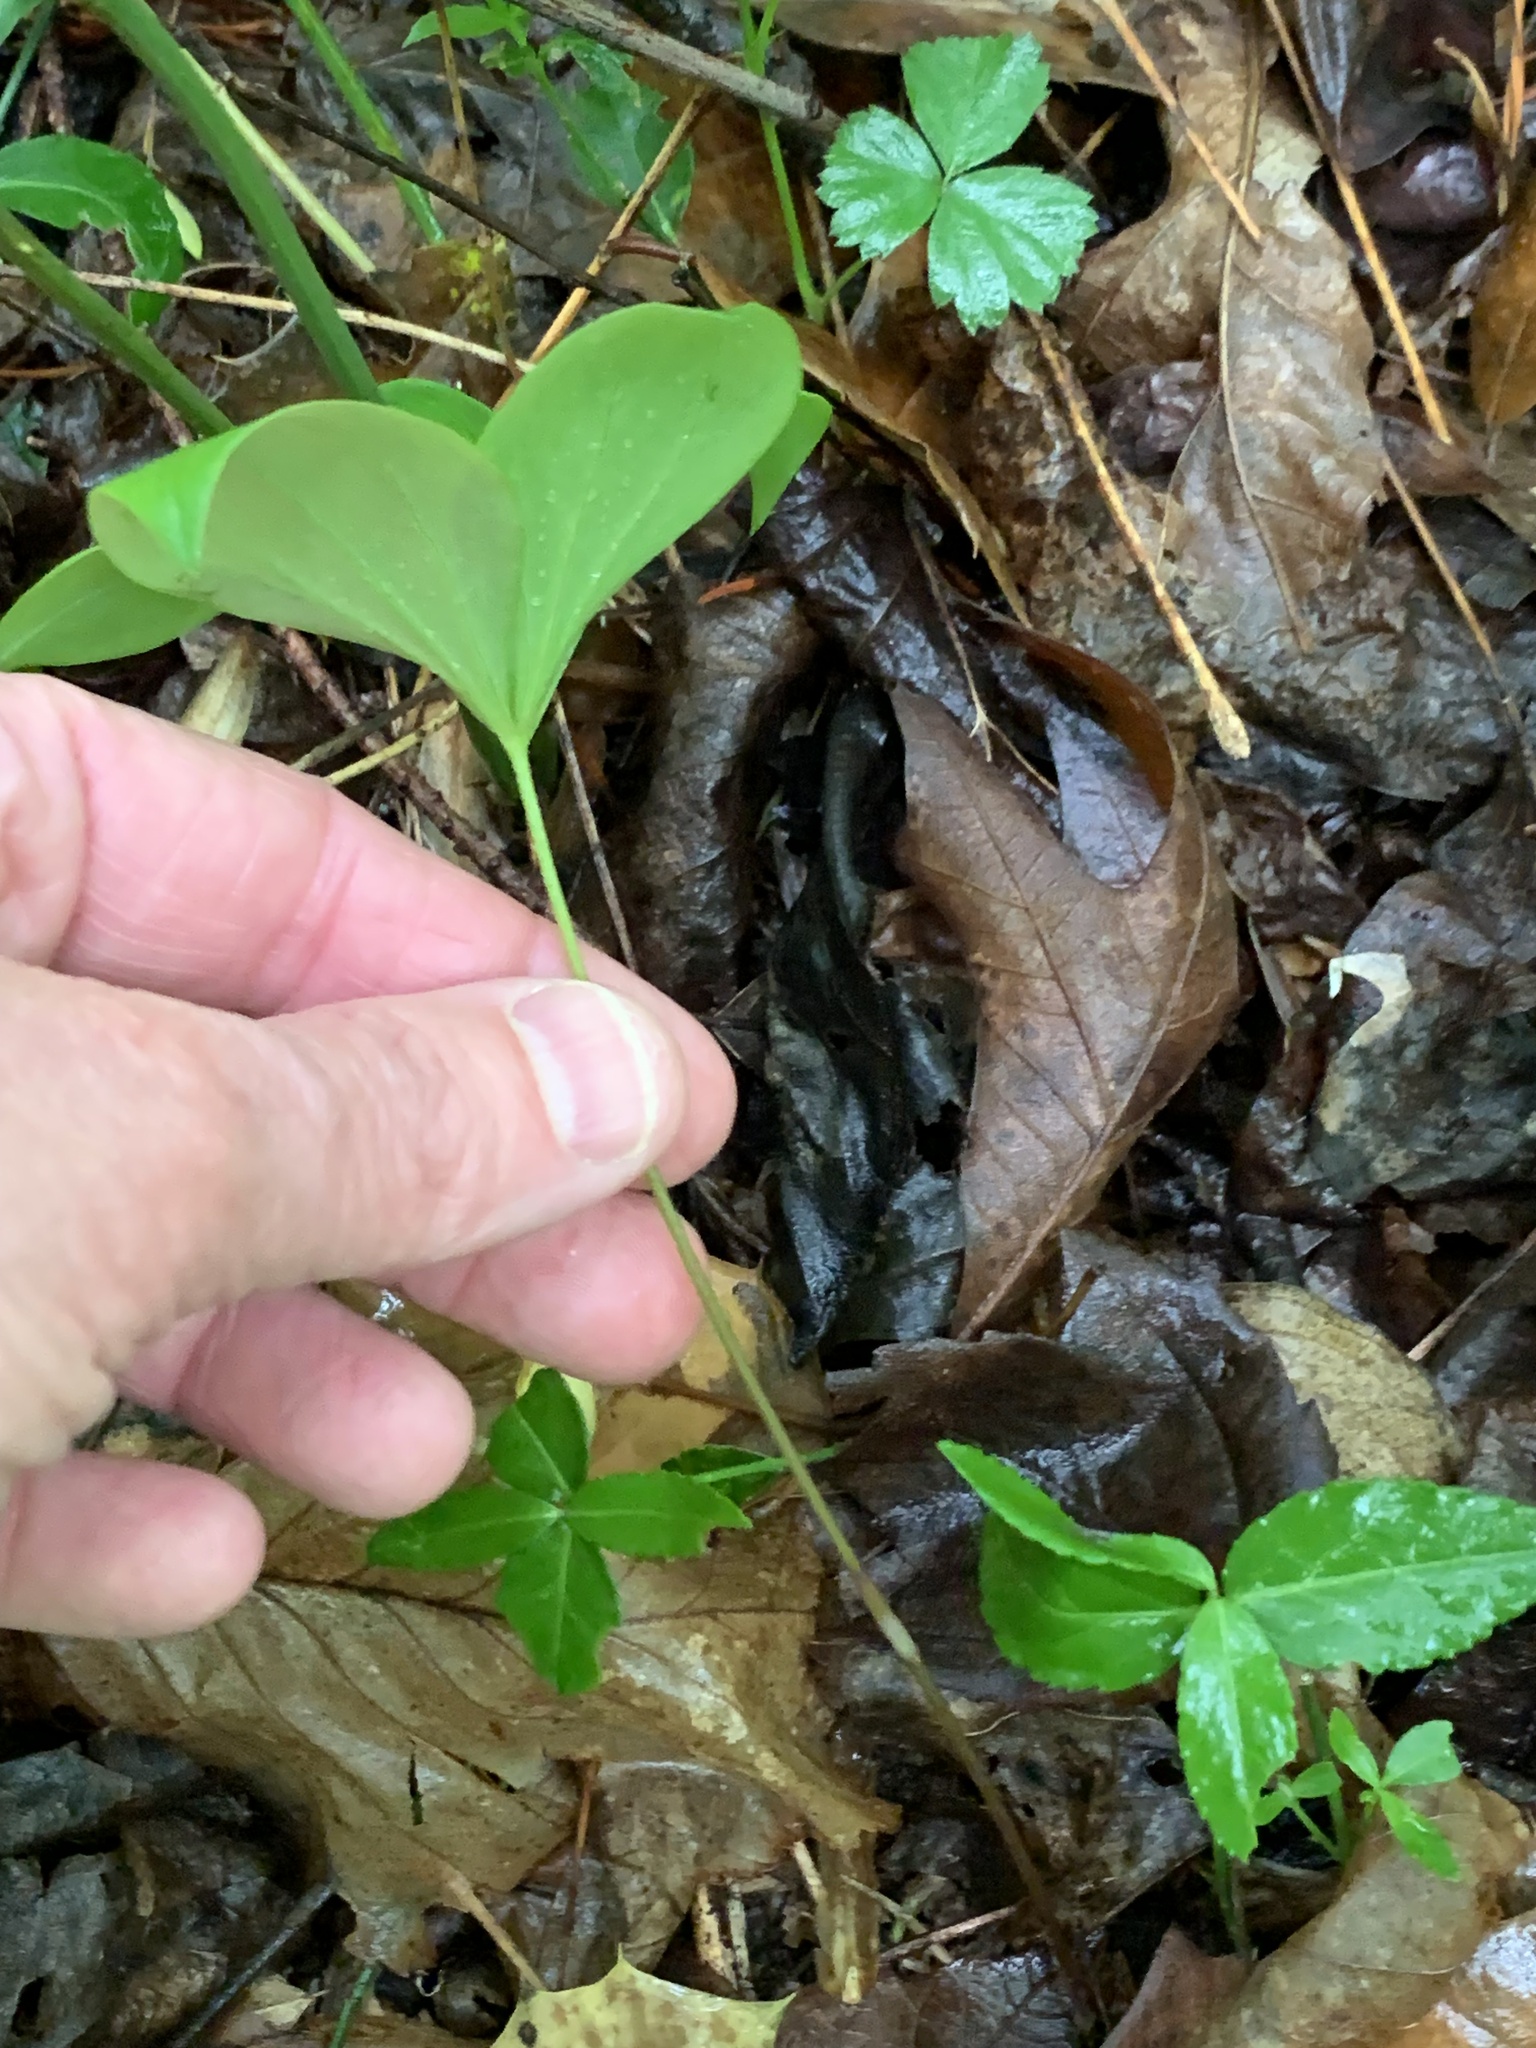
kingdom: Plantae
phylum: Tracheophyta
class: Liliopsida
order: Liliales
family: Liliaceae
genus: Medeola
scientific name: Medeola virginiana
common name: Indian cucumber-root
